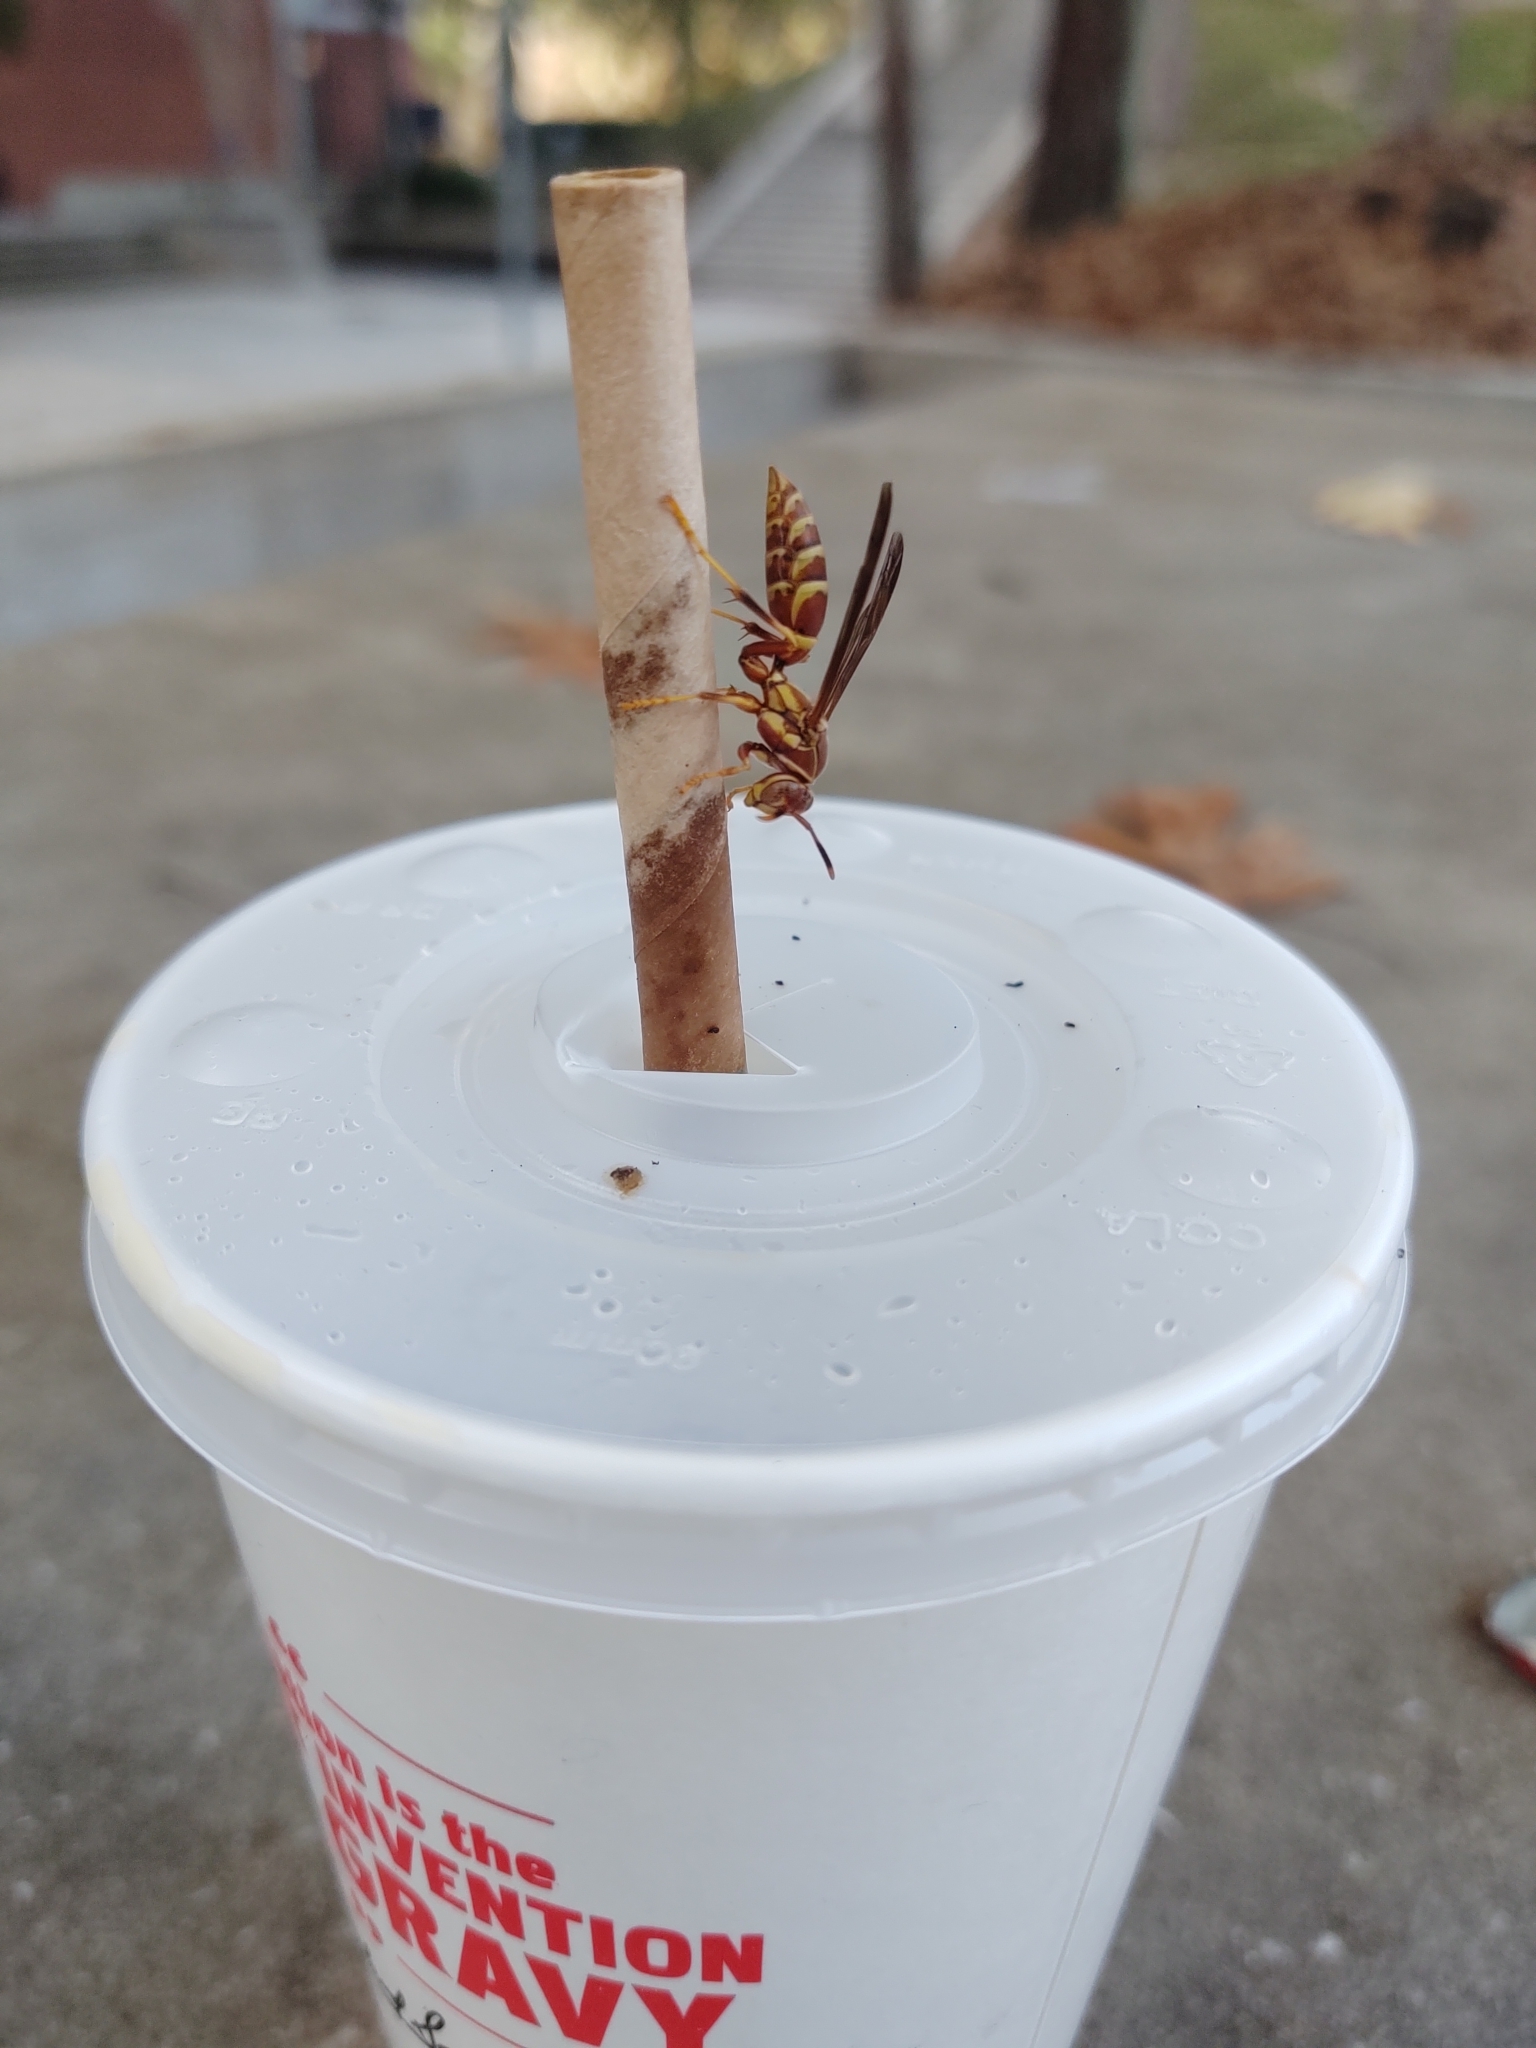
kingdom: Animalia
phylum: Arthropoda
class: Insecta
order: Hymenoptera
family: Eumenidae
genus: Polistes
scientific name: Polistes exclamans
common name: Paper wasp
